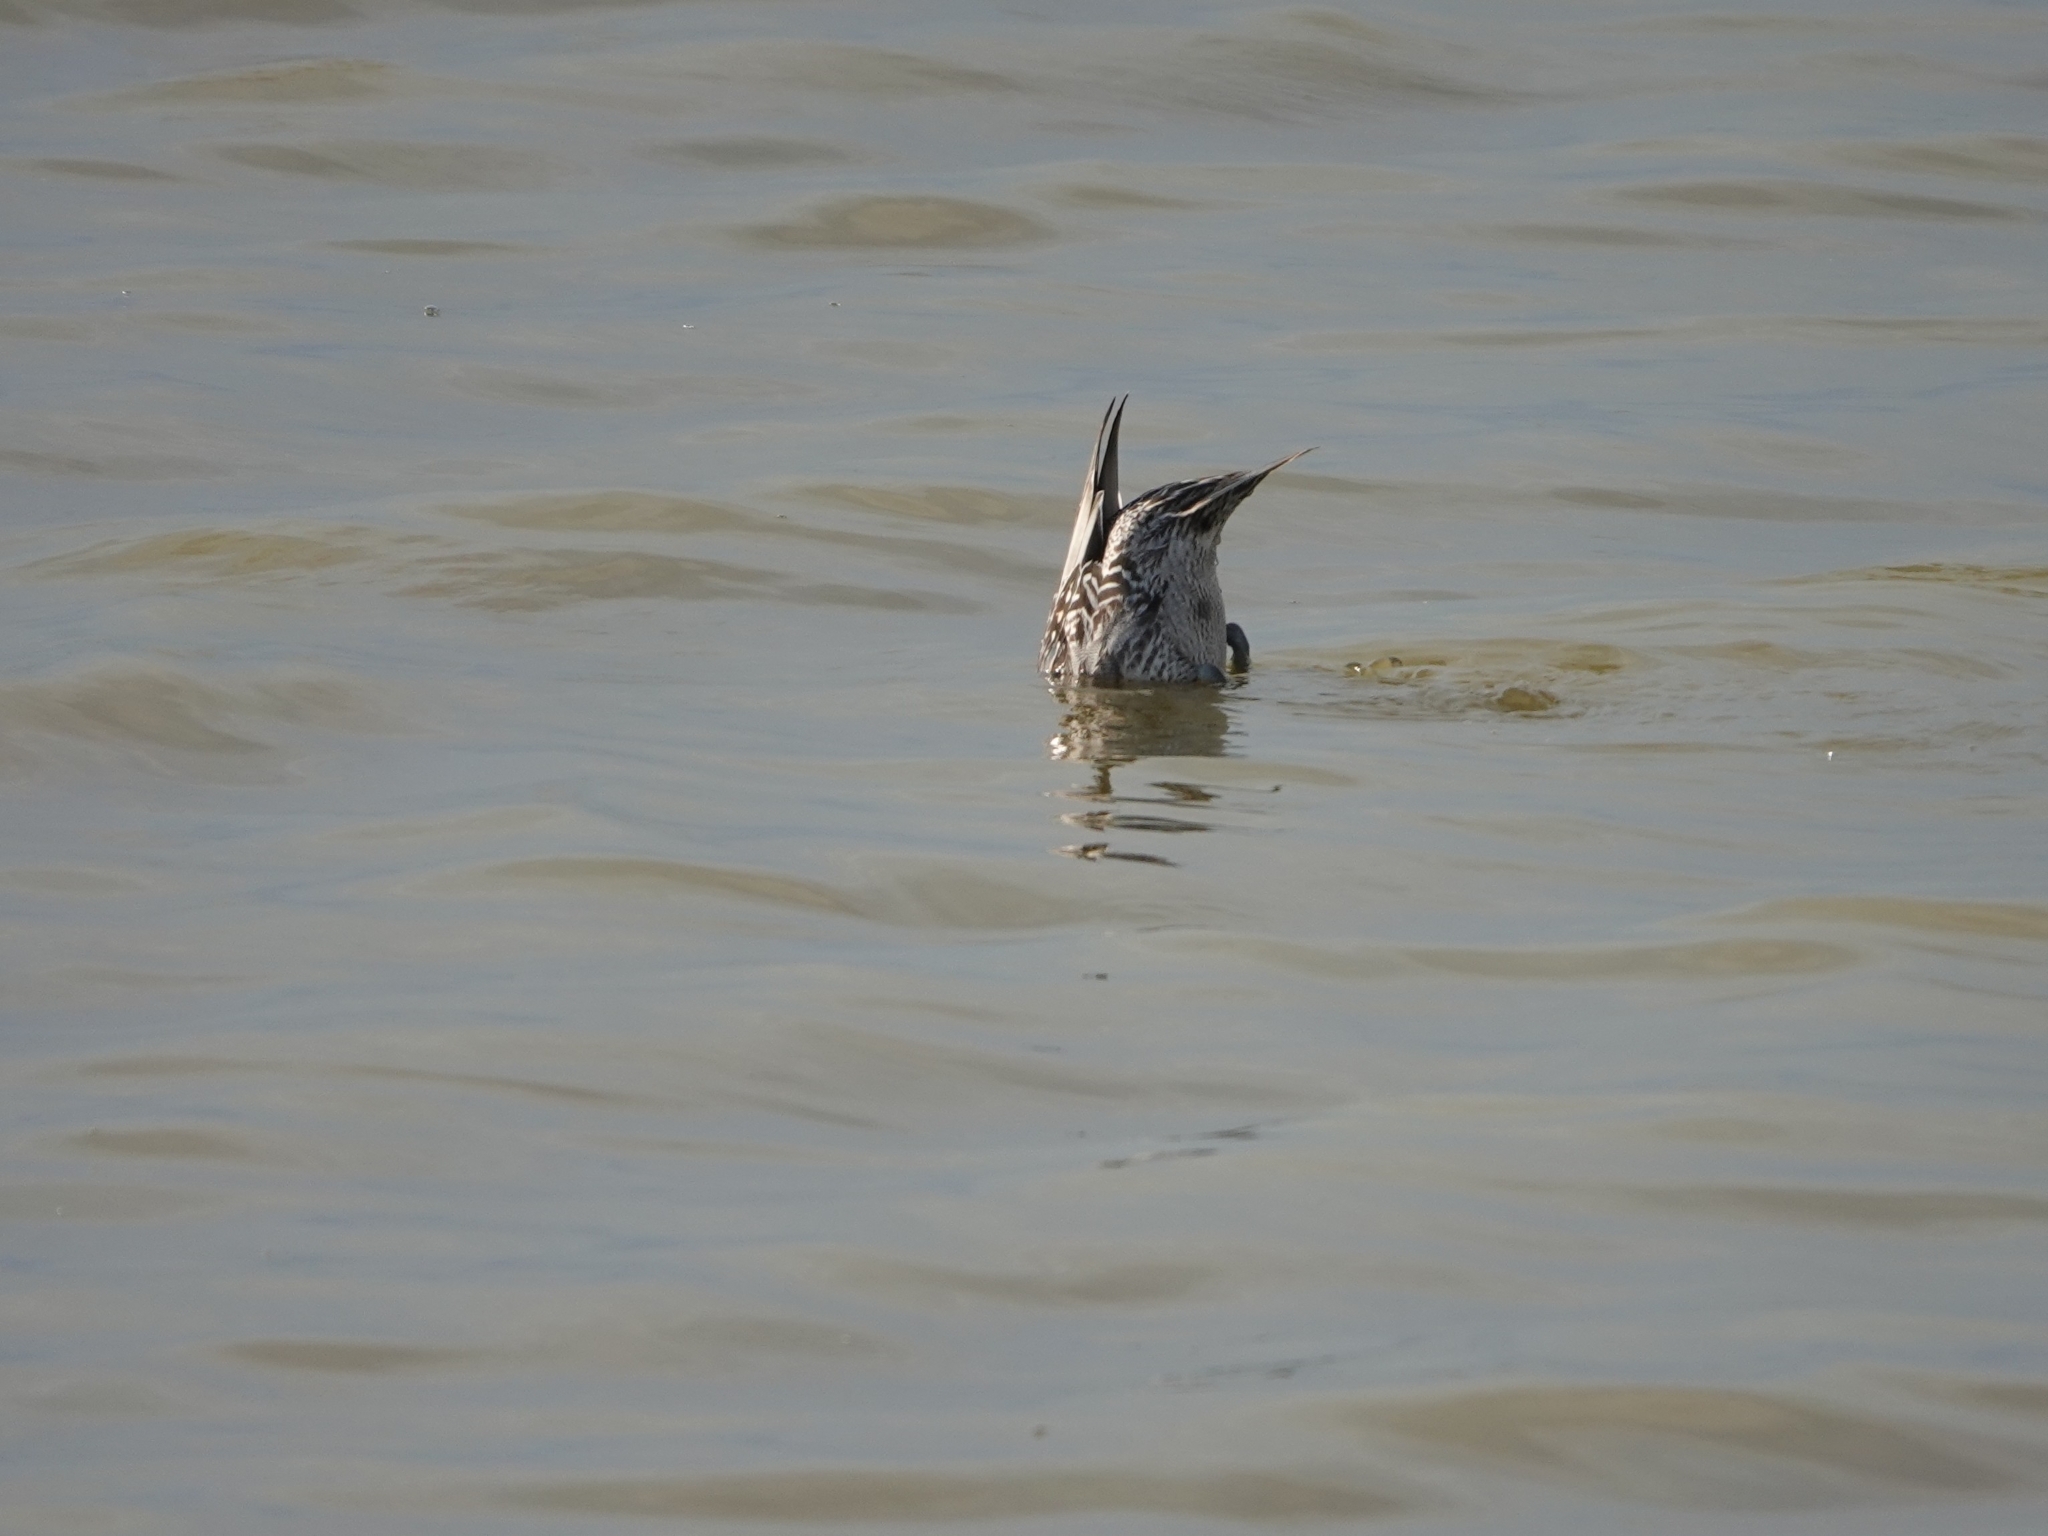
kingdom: Animalia
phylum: Chordata
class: Aves
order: Anseriformes
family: Anatidae
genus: Anas
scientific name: Anas acuta
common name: Northern pintail
